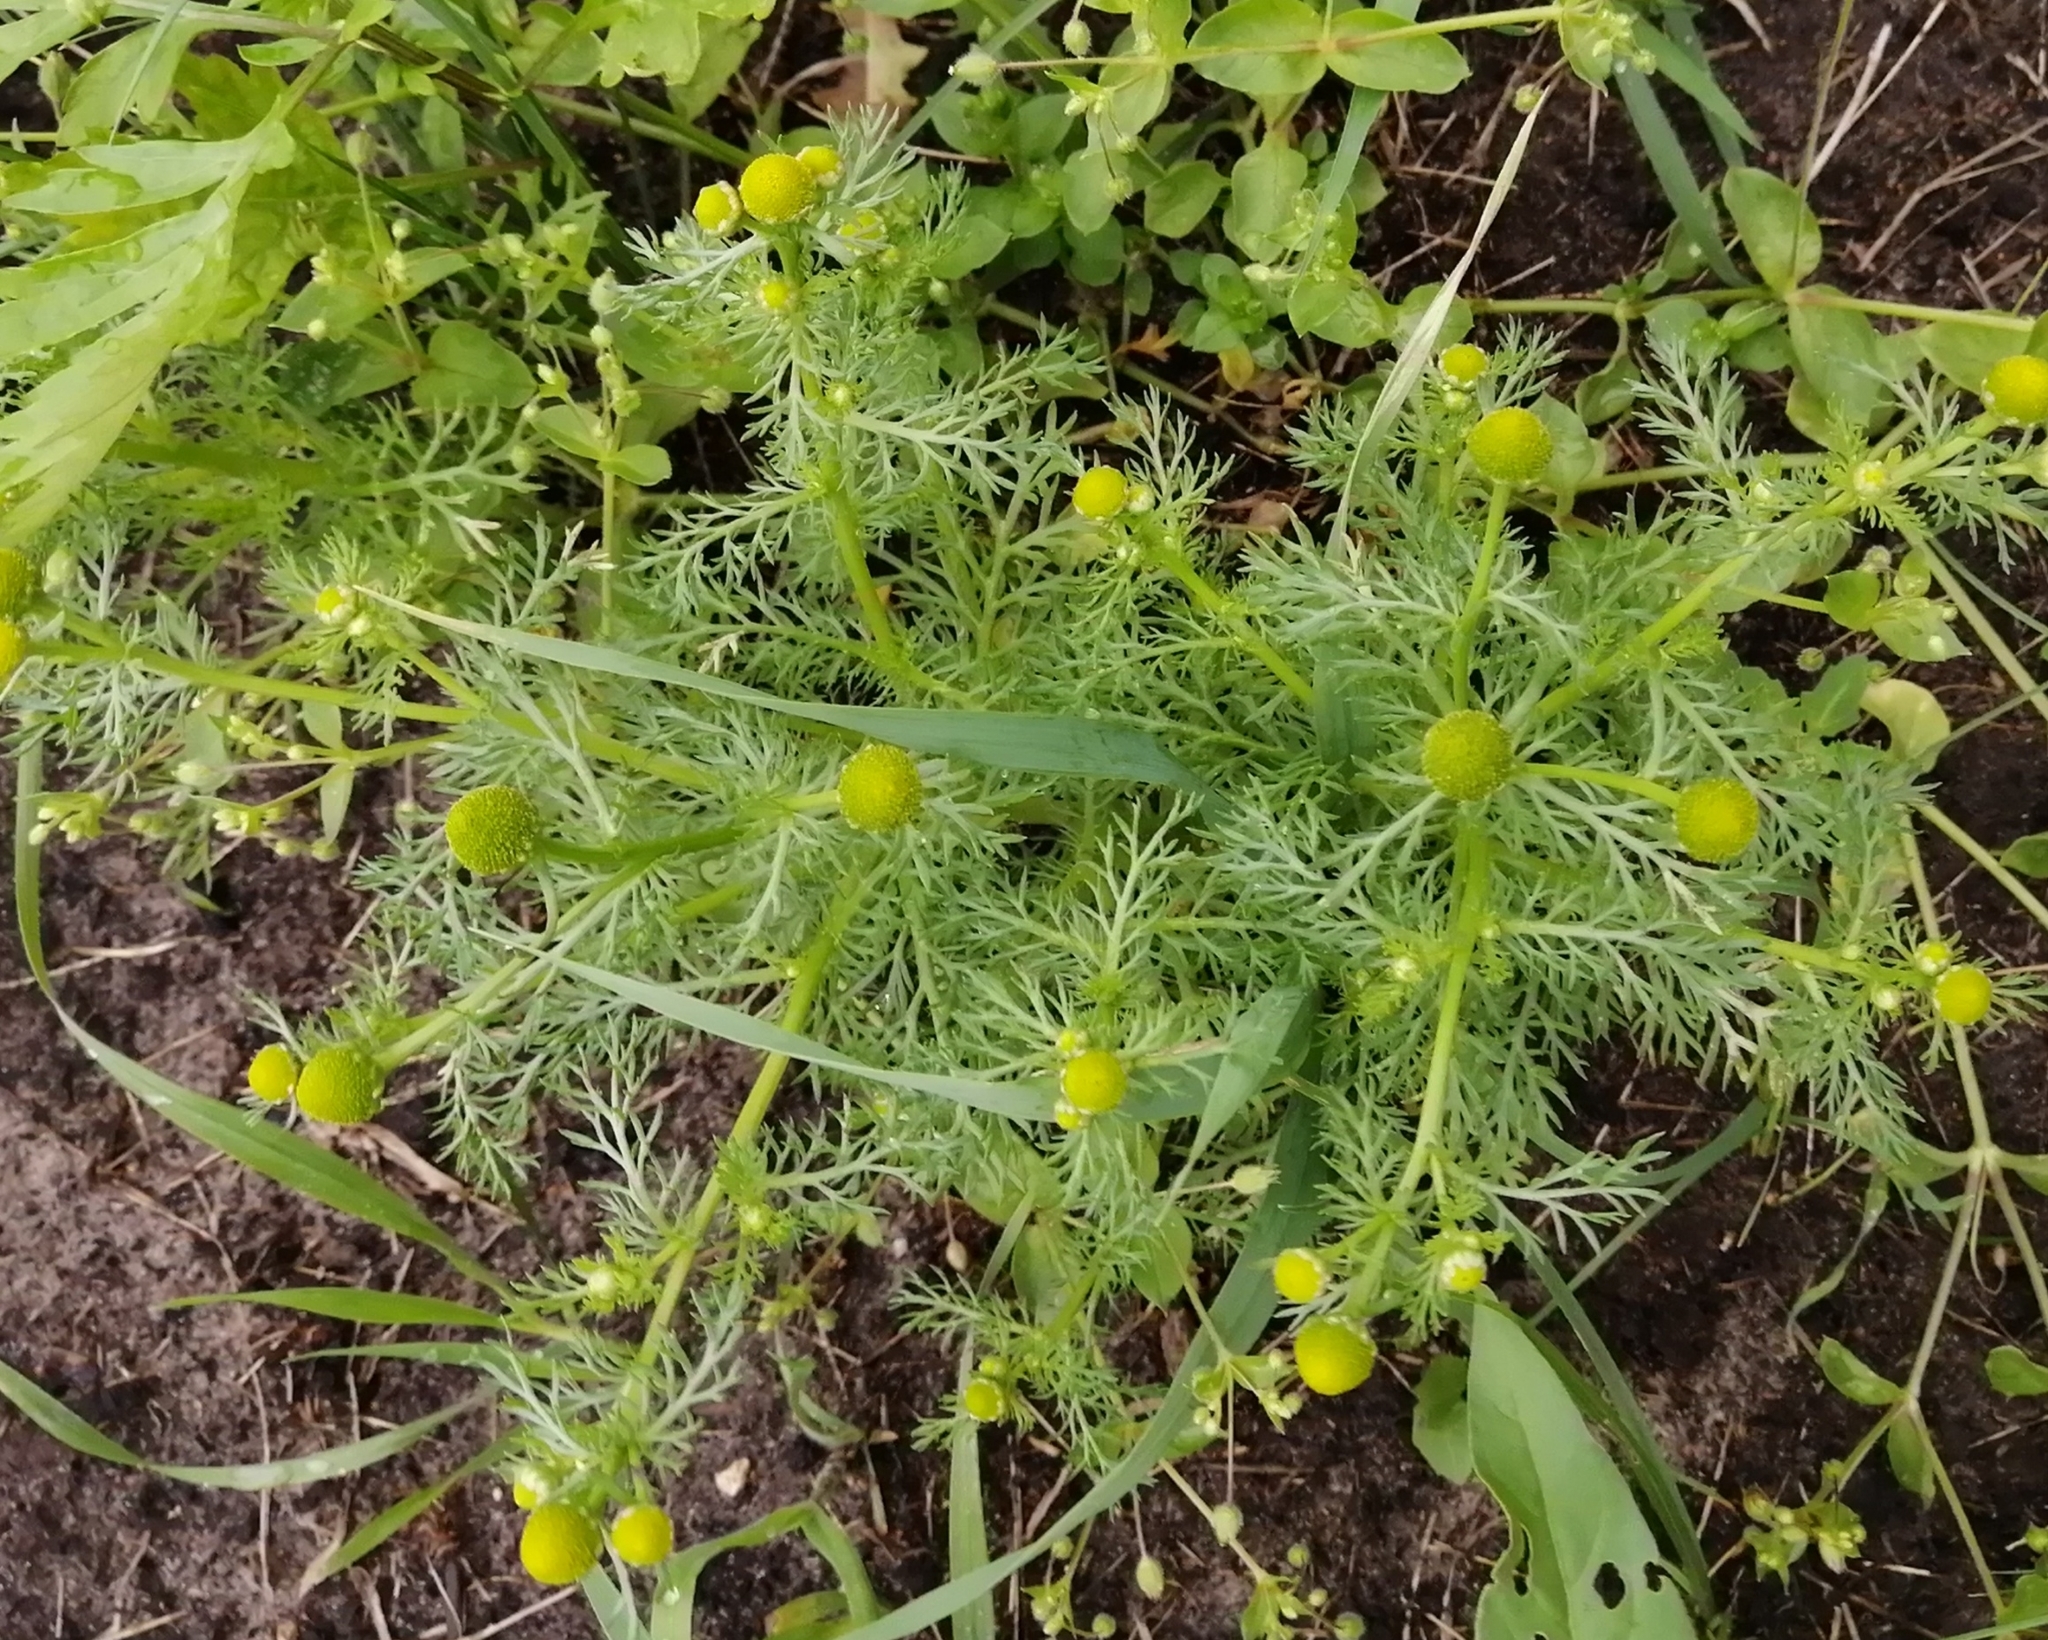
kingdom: Plantae
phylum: Tracheophyta
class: Magnoliopsida
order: Asterales
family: Asteraceae
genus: Matricaria
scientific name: Matricaria discoidea
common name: Disc mayweed
